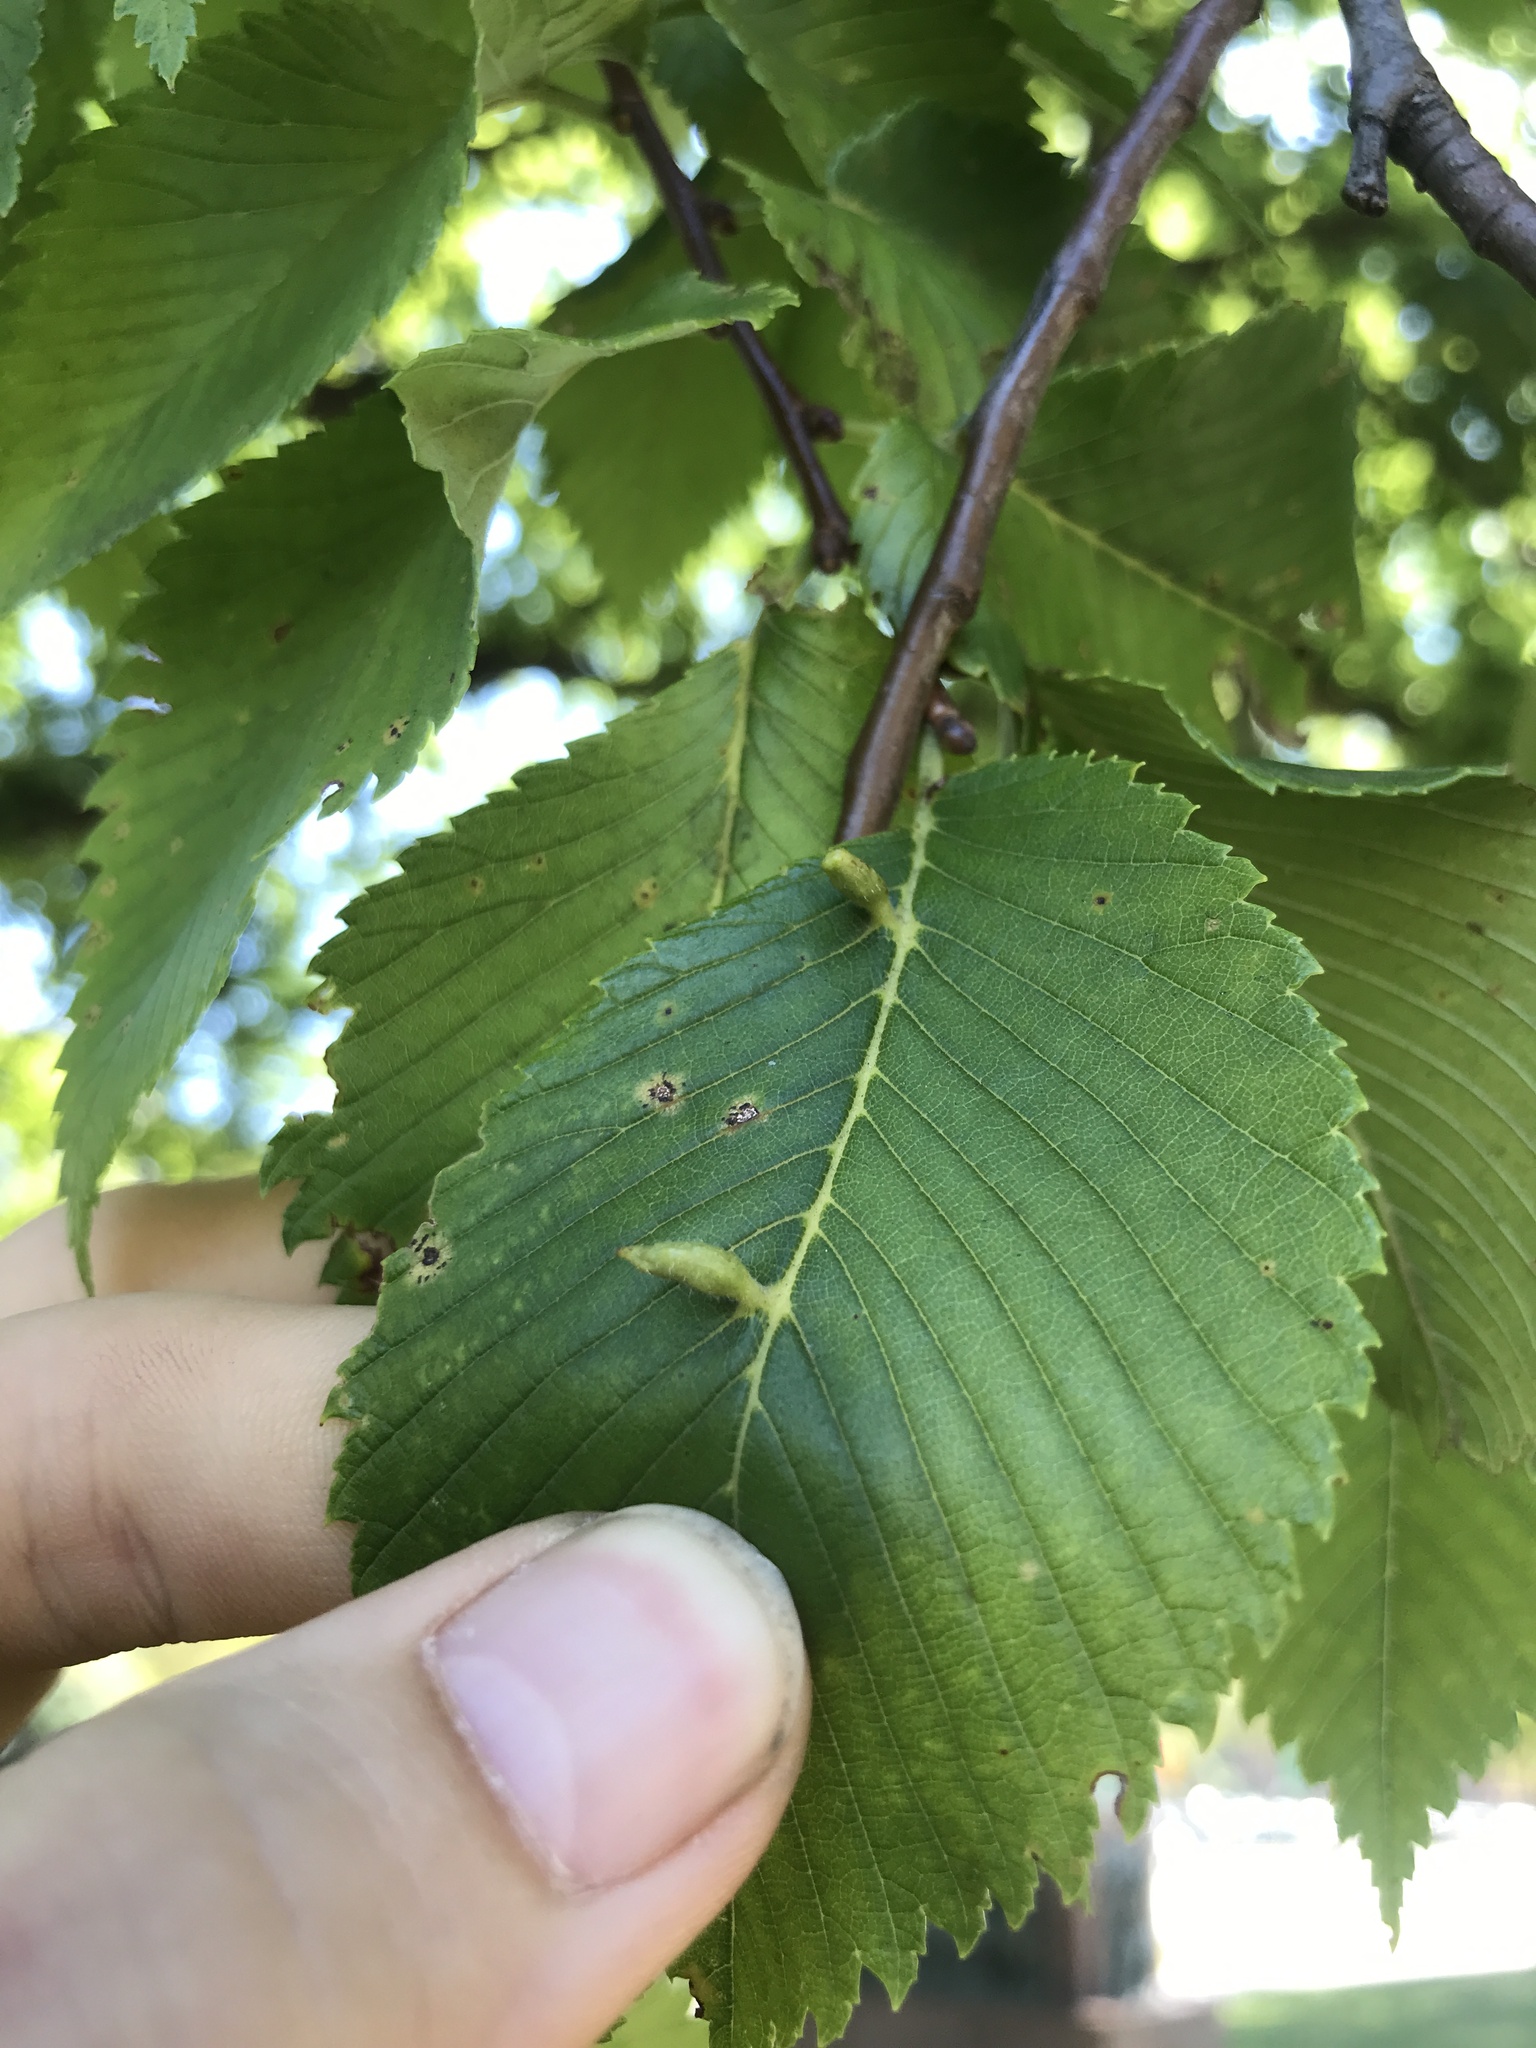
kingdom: Animalia
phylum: Arthropoda
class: Arachnida
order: Trombidiformes
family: Eriophyidae
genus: Aceria
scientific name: Aceria
